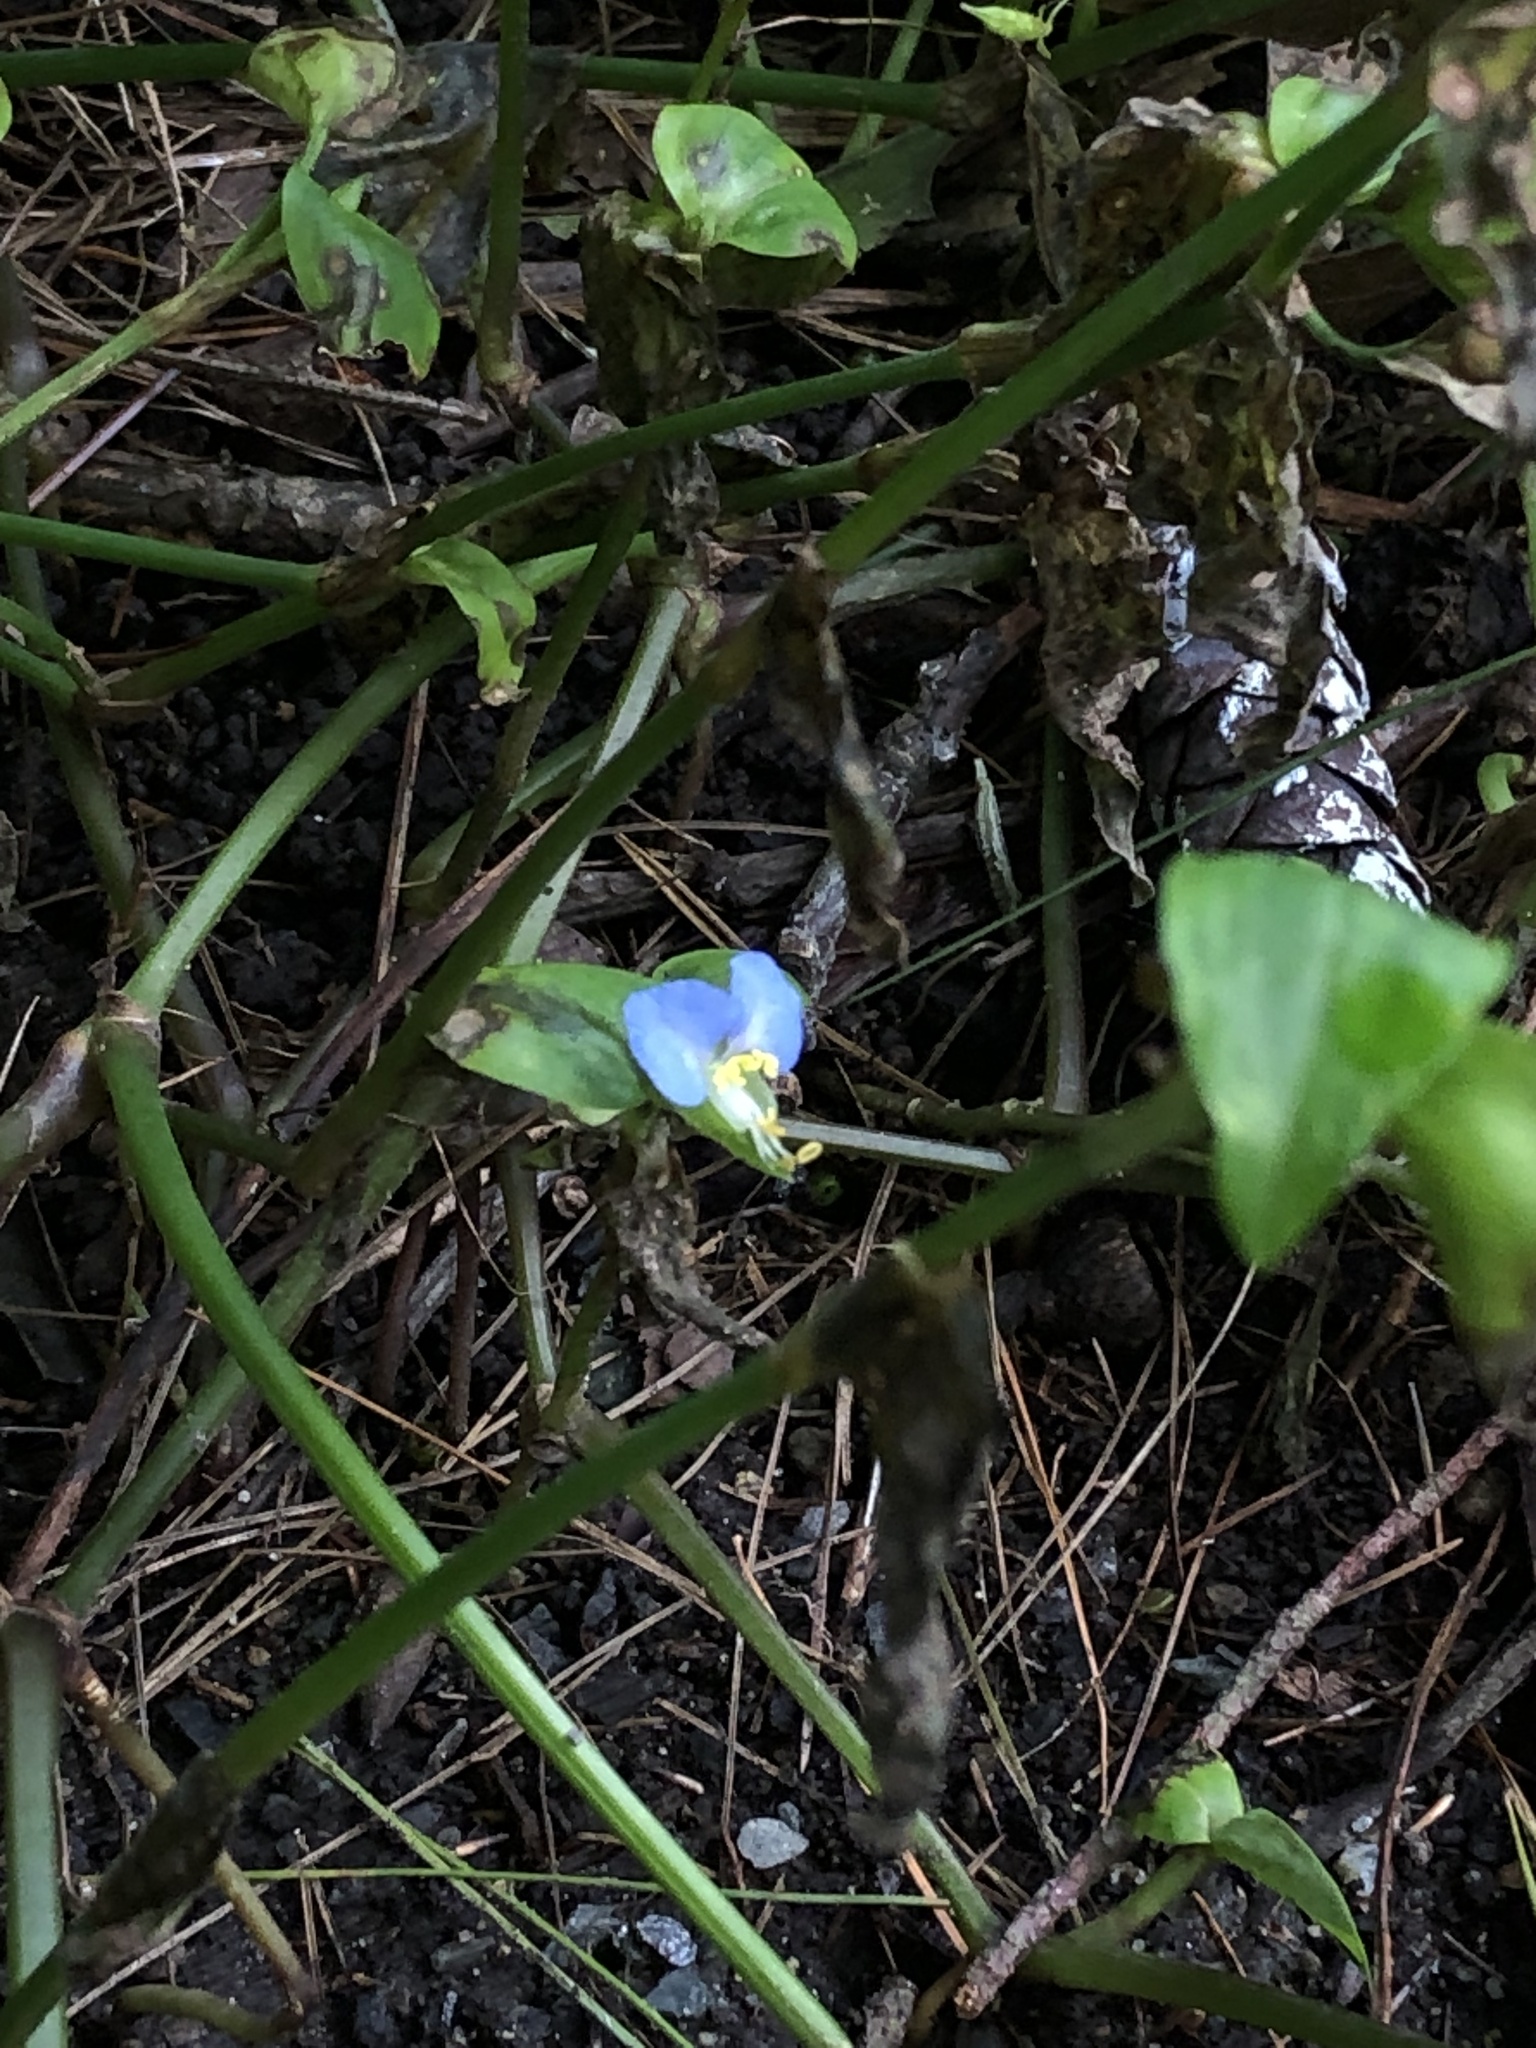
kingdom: Plantae
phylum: Tracheophyta
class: Liliopsida
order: Commelinales
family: Commelinaceae
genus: Commelina
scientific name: Commelina communis
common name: Asiatic dayflower
